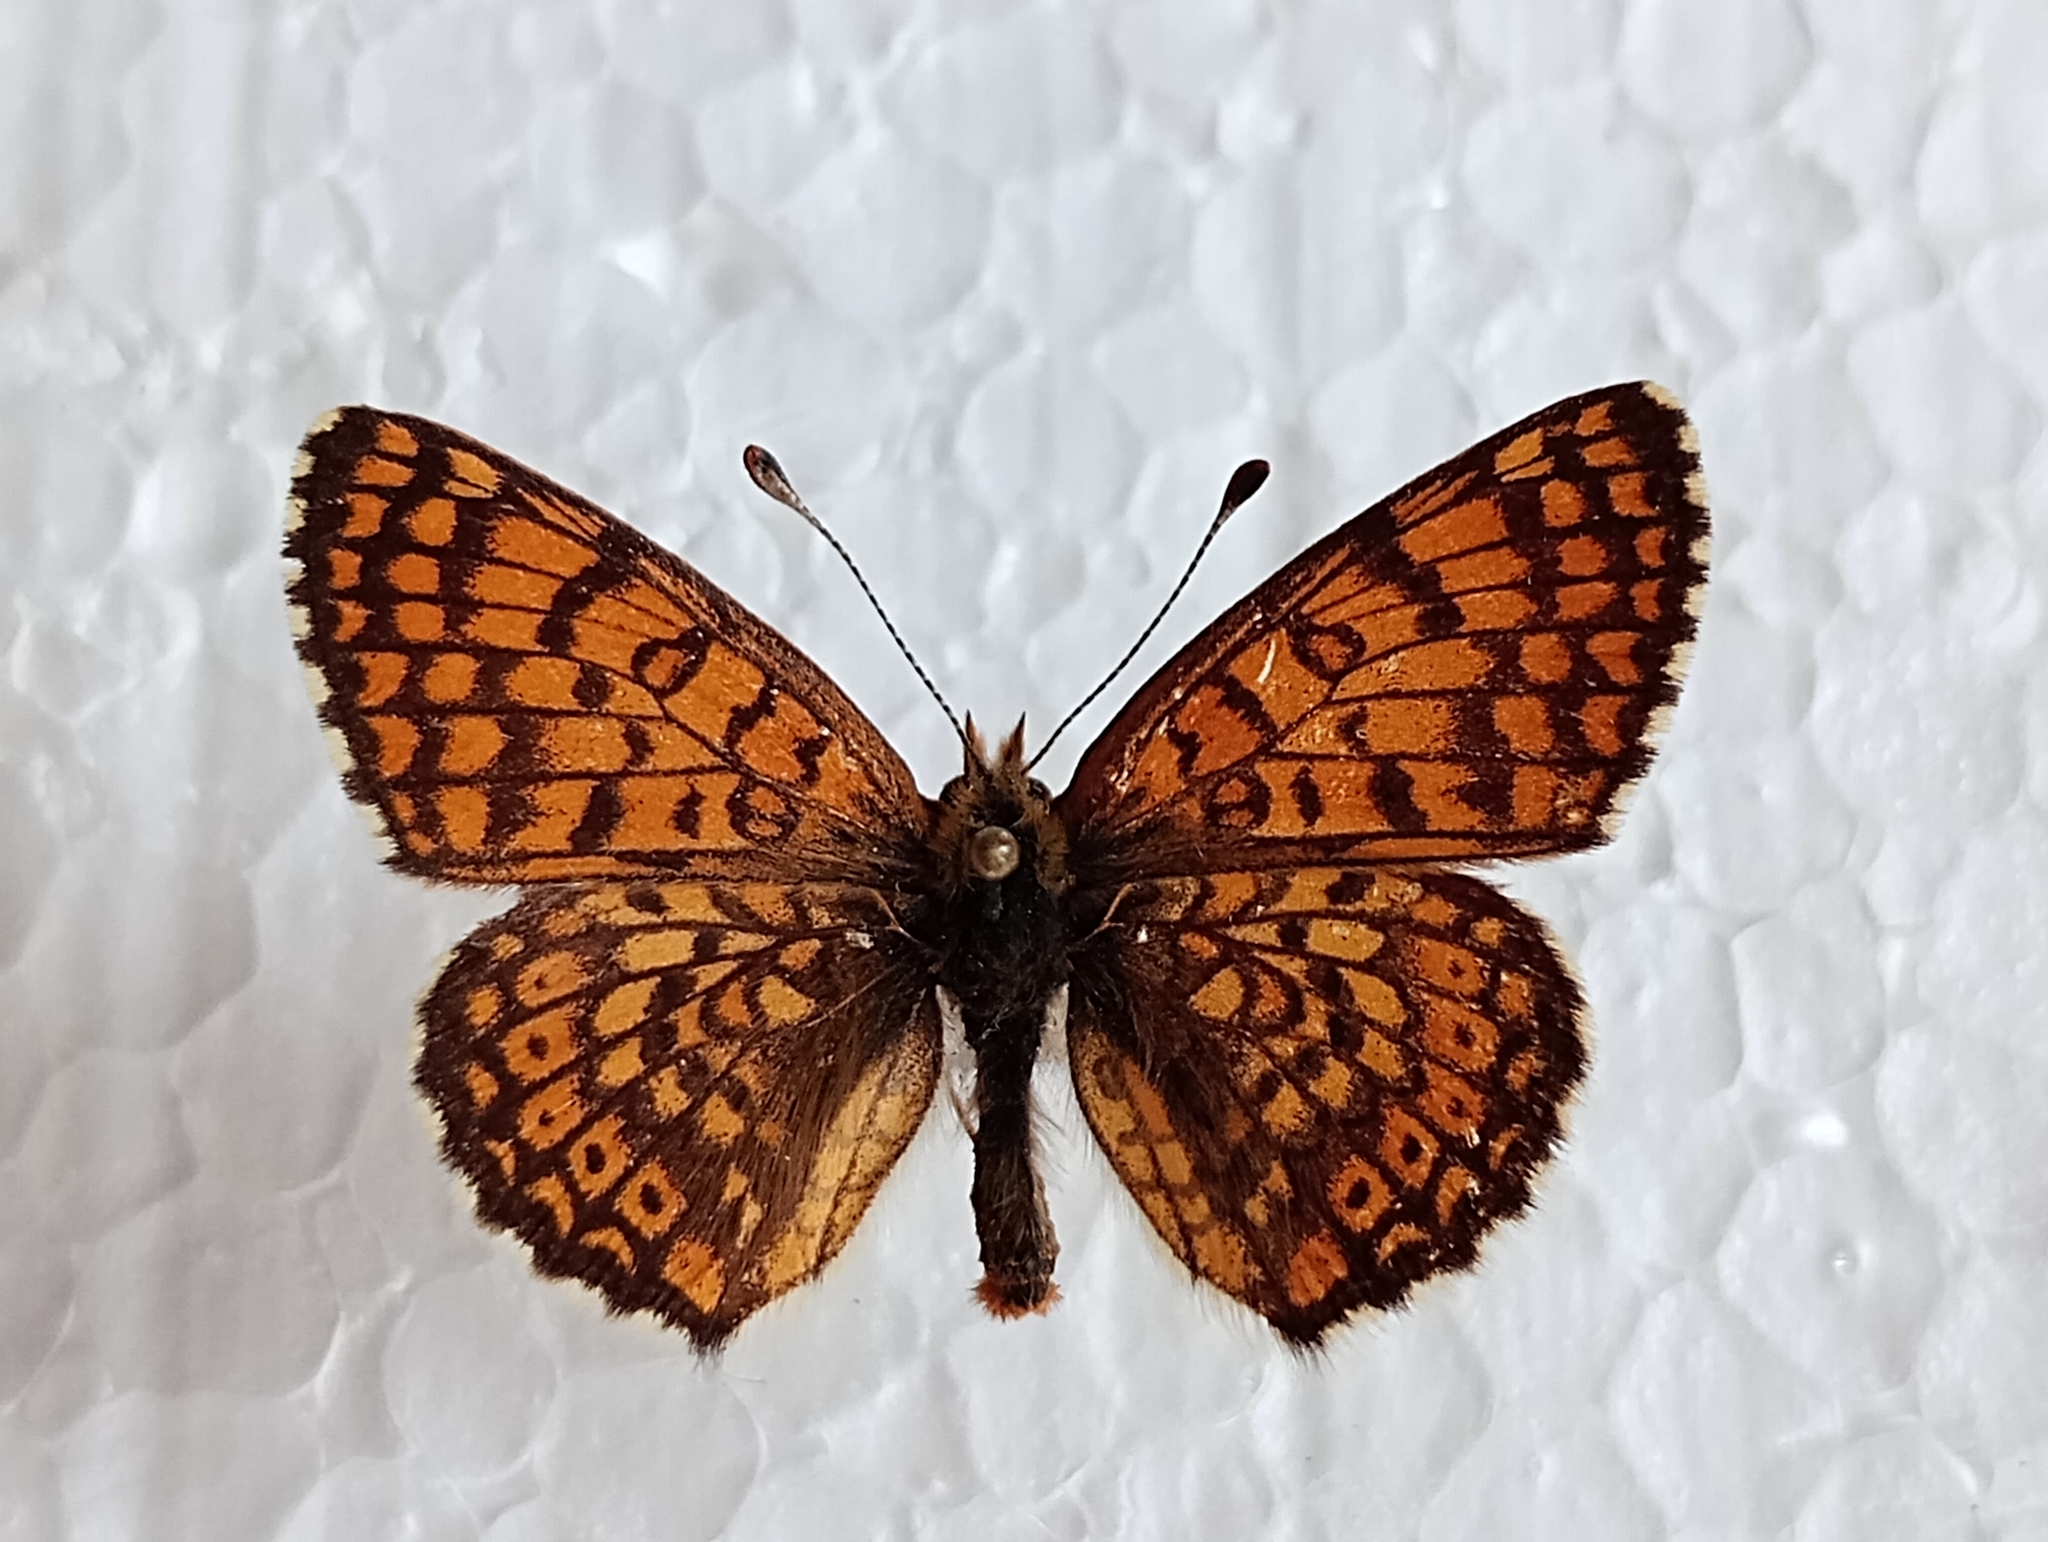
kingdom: Animalia
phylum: Arthropoda
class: Insecta
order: Lepidoptera
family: Nymphalidae
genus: Melitaea
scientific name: Melitaea cinxia
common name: Glanville fritillary
